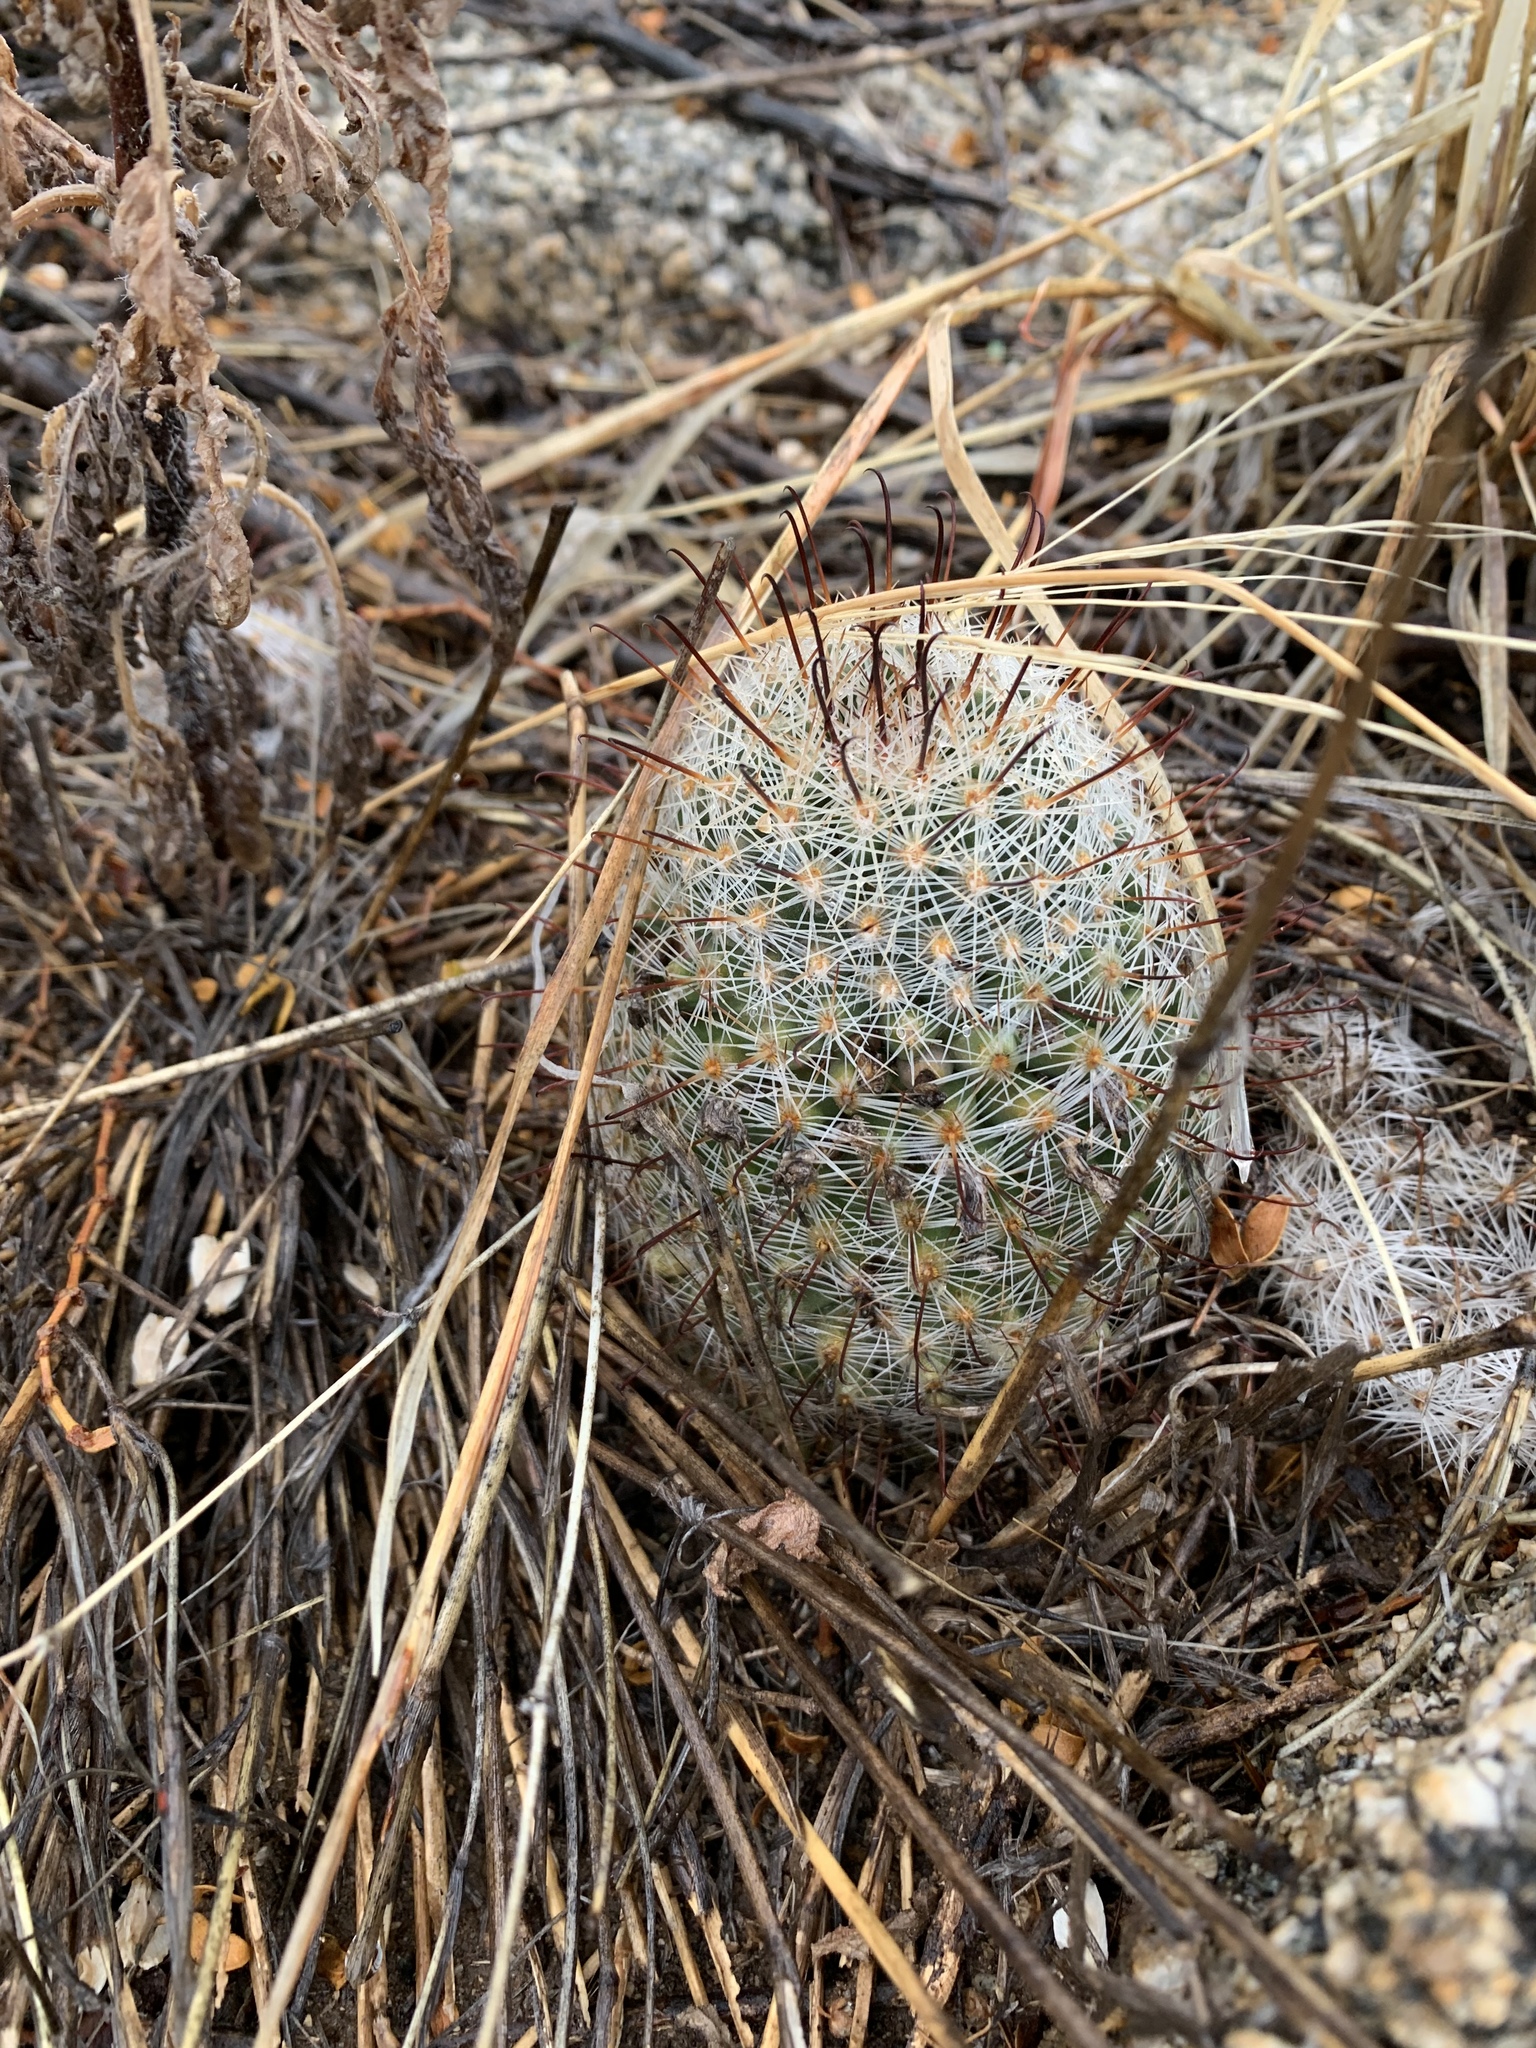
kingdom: Plantae
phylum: Tracheophyta
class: Magnoliopsida
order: Caryophyllales
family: Cactaceae
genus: Cochemiea
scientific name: Cochemiea grahamii
